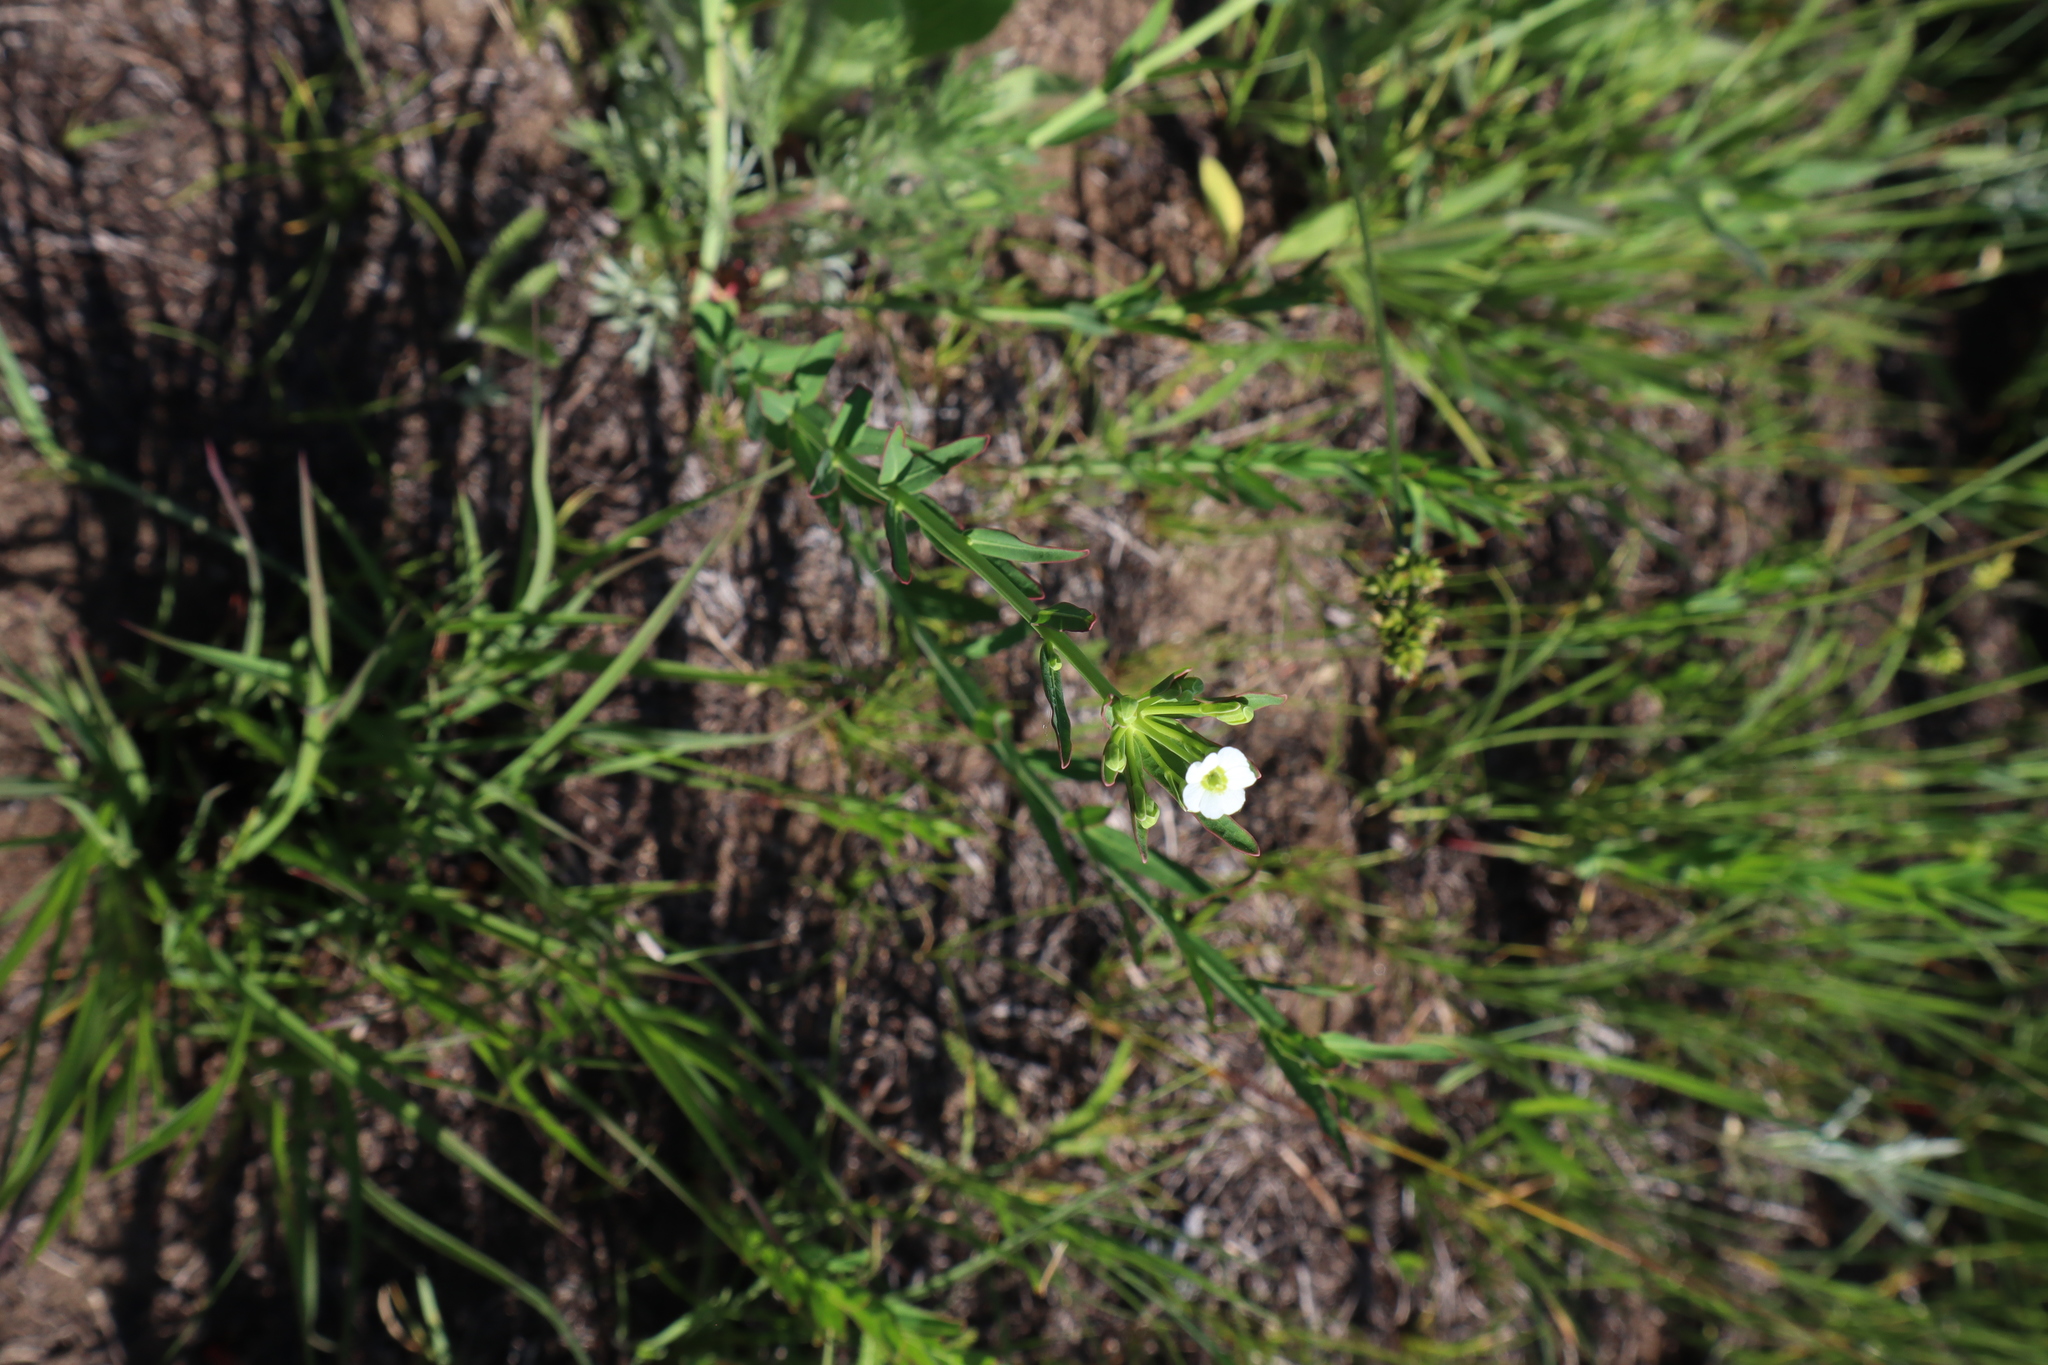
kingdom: Plantae
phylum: Tracheophyta
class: Magnoliopsida
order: Malpighiales
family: Euphorbiaceae
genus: Euphorbia
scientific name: Euphorbia corollata
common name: Flowering spurge
